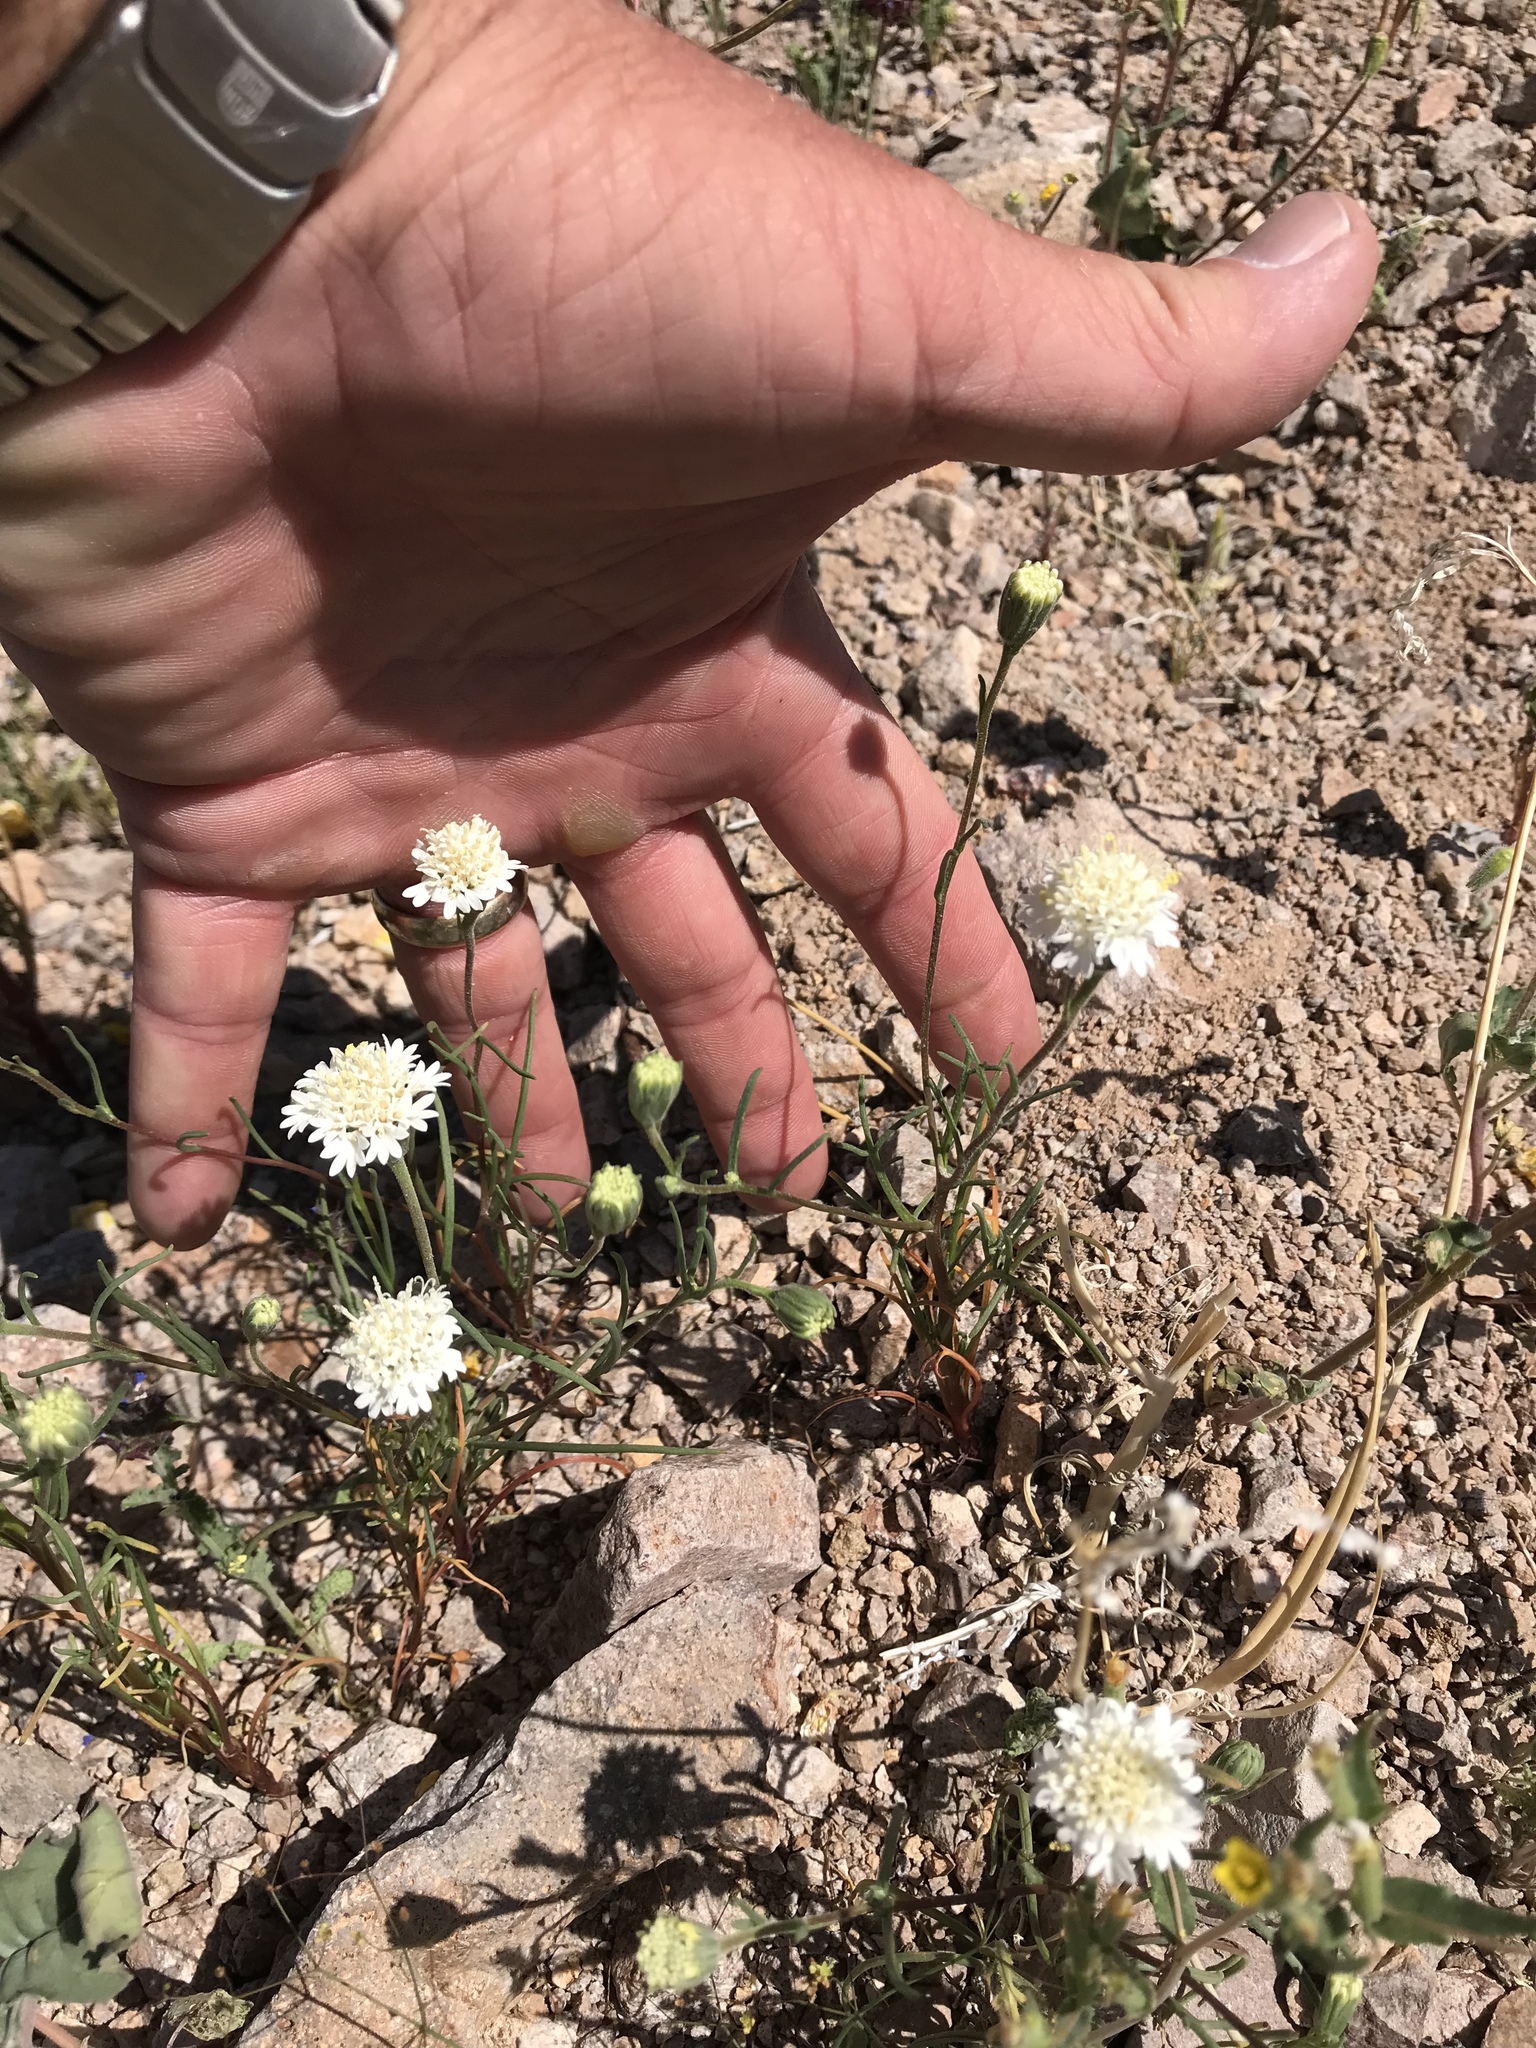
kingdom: Plantae
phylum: Tracheophyta
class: Magnoliopsida
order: Asterales
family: Asteraceae
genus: Chaenactis
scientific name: Chaenactis fremontii
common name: Fremont pincushion
